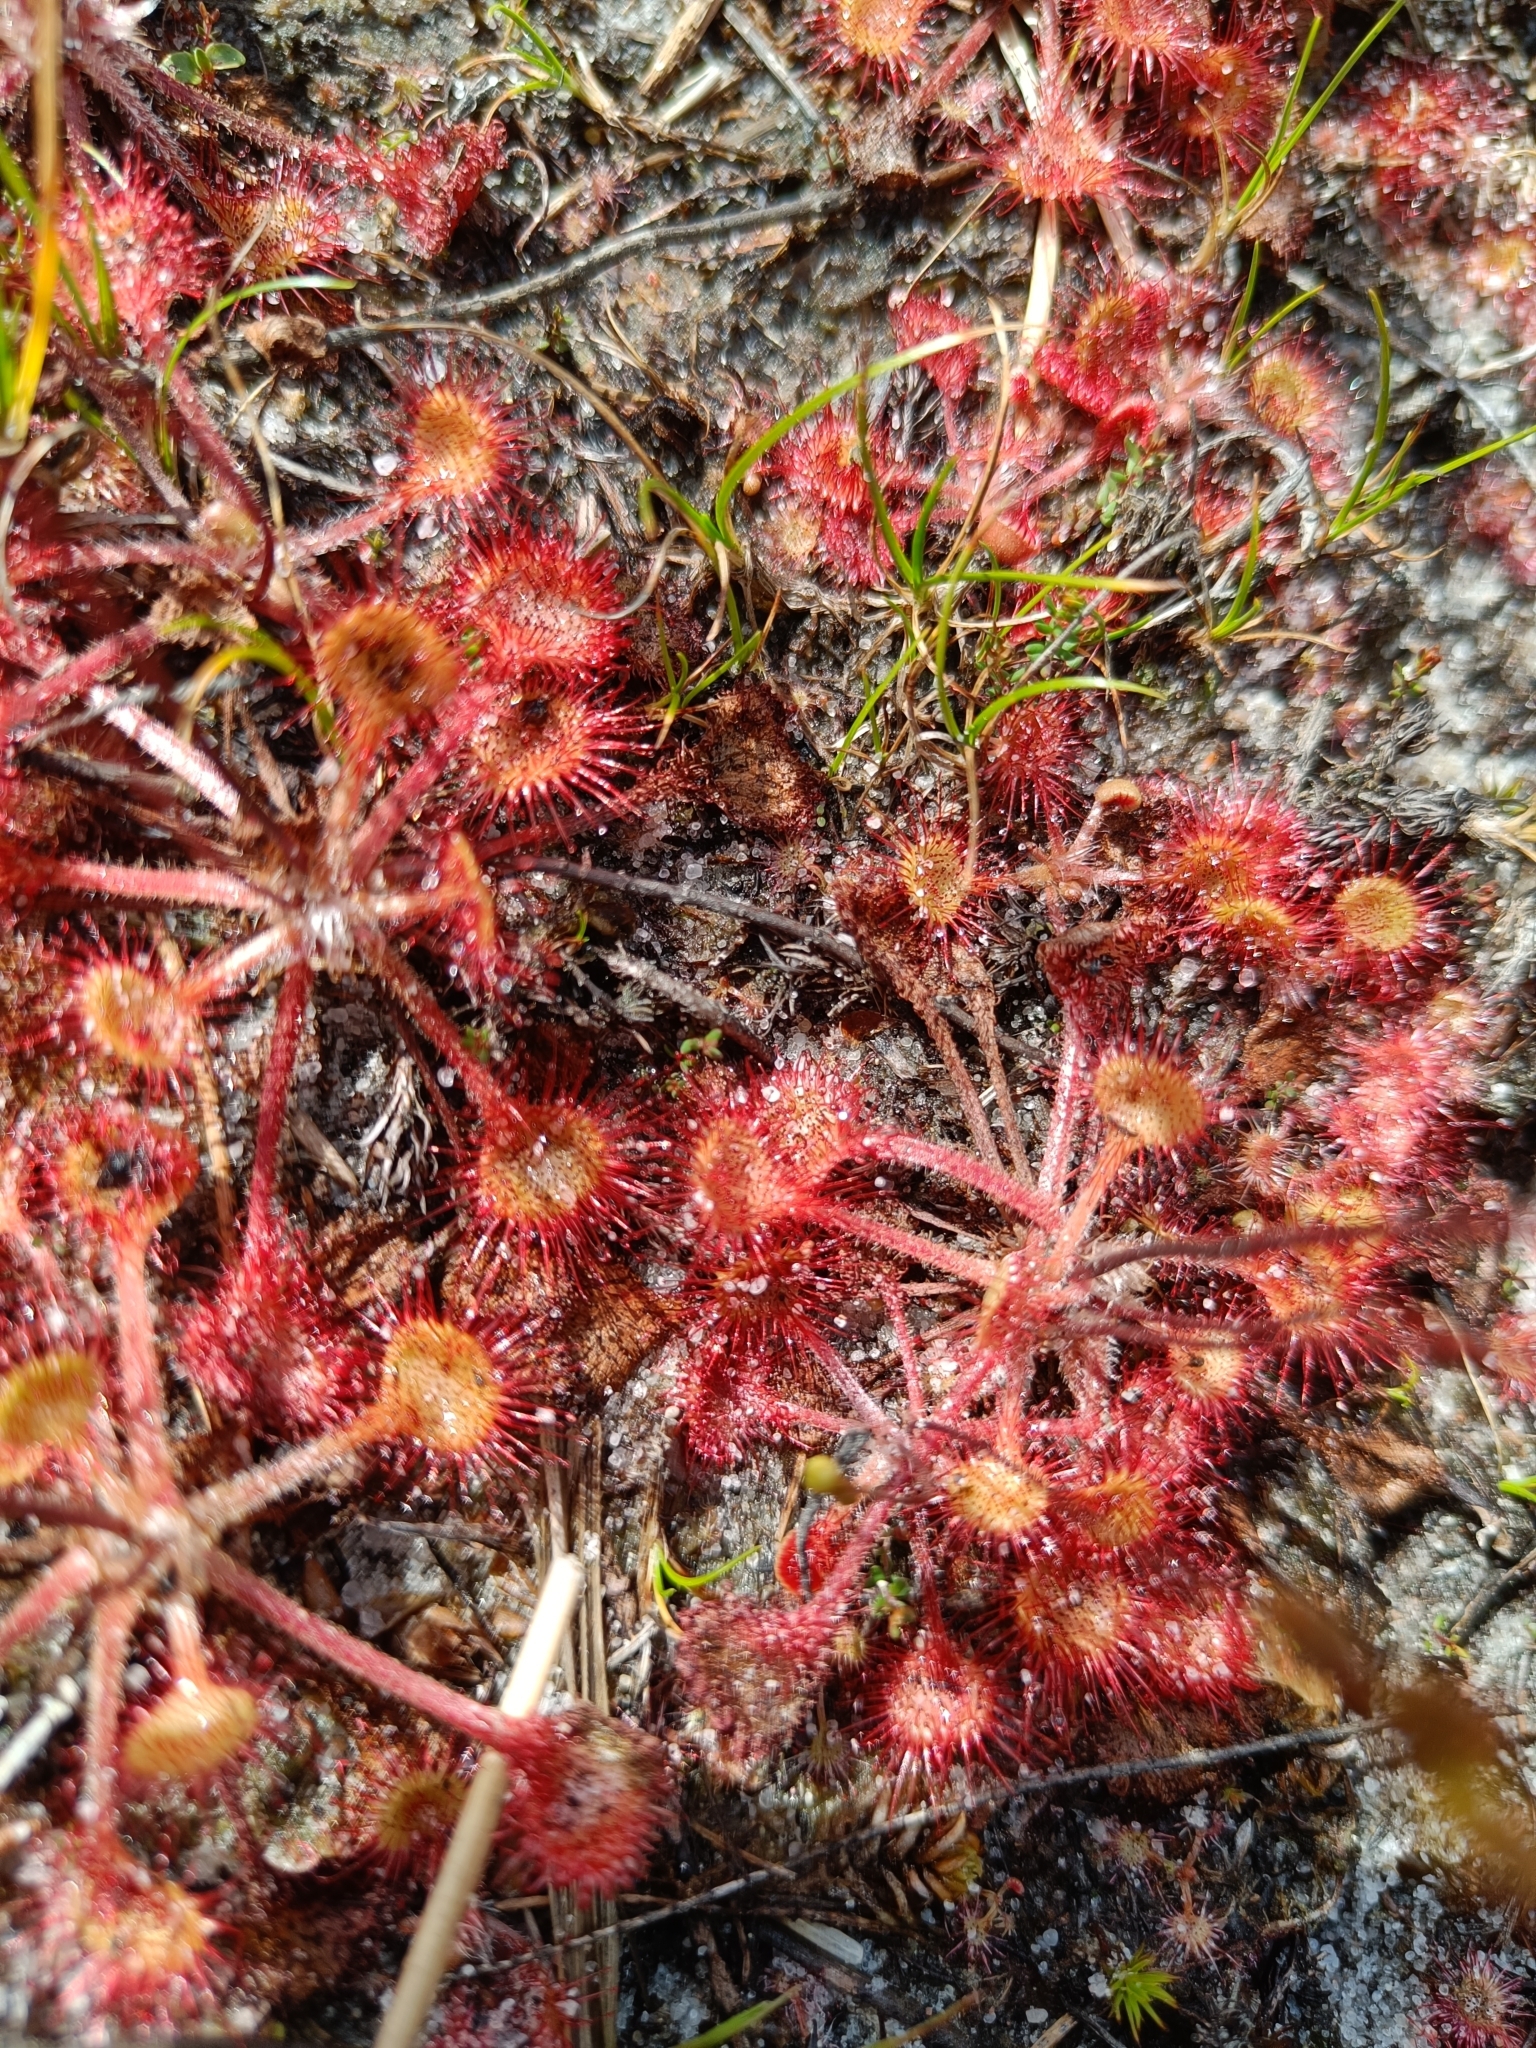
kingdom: Plantae
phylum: Tracheophyta
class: Magnoliopsida
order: Caryophyllales
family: Droseraceae
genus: Drosera
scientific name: Drosera rotundifolia
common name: Round-leaved sundew
